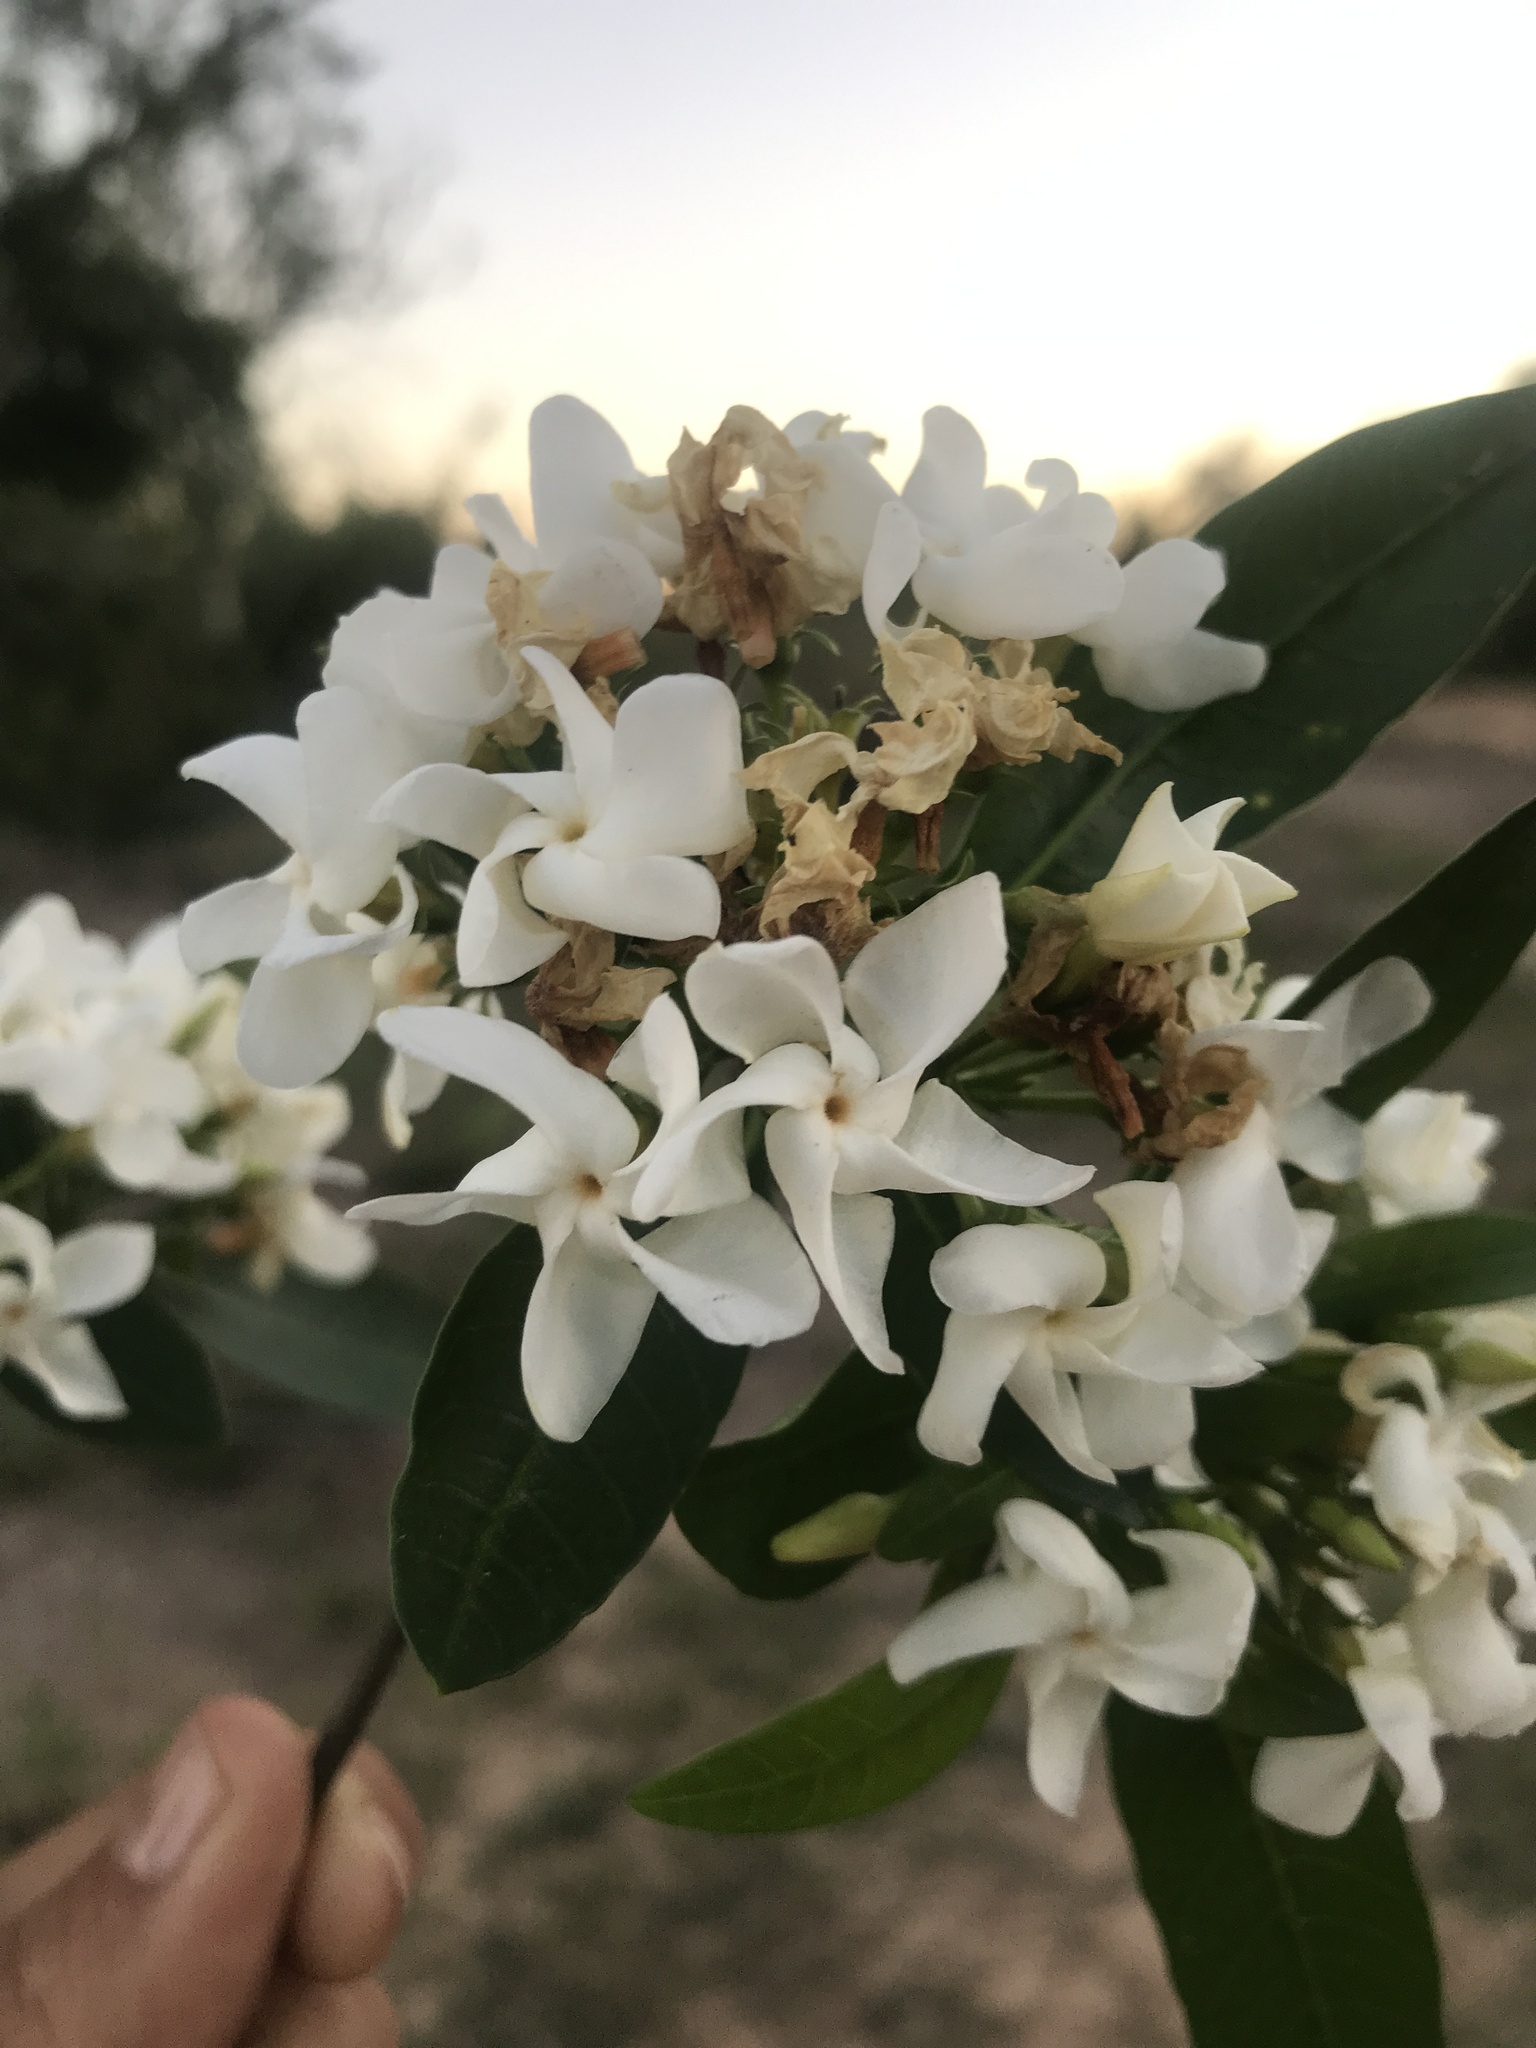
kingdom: Plantae
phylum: Tracheophyta
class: Magnoliopsida
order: Gentianales
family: Apocynaceae
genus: Tabernaemontana
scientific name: Tabernaemontana catharinensis
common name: Pinwheel-flower
